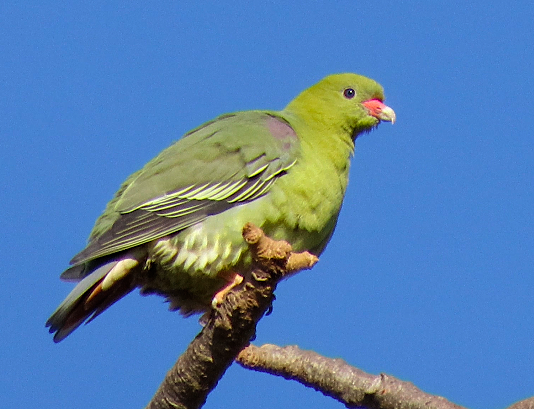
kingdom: Animalia
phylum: Chordata
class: Aves
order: Columbiformes
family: Columbidae
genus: Treron
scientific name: Treron calvus
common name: African green pigeon
